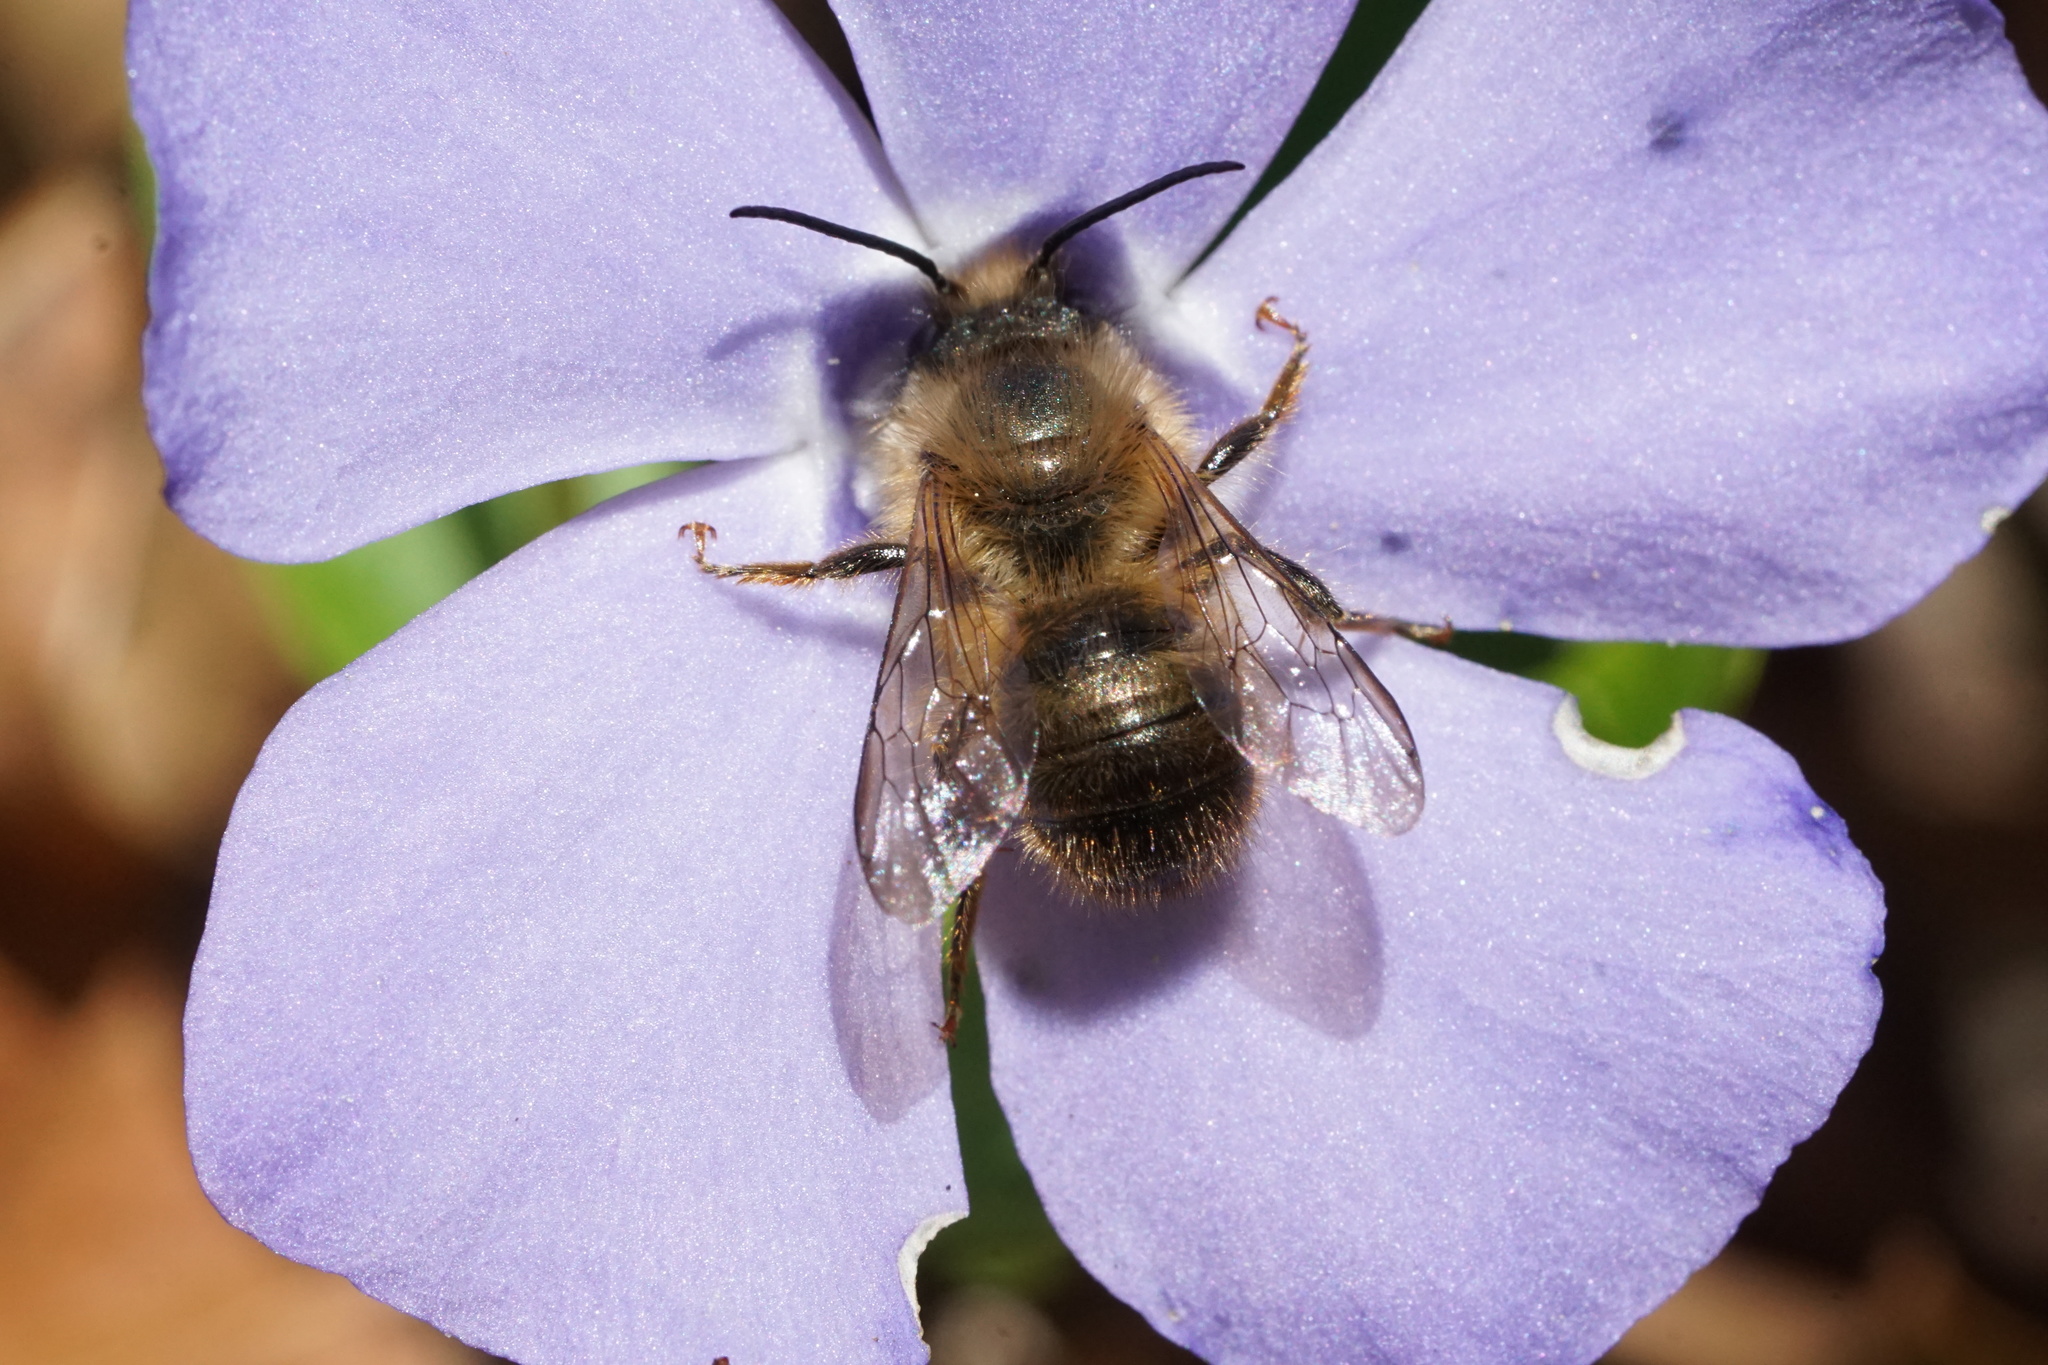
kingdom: Animalia
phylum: Arthropoda
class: Insecta
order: Hymenoptera
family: Megachilidae
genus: Osmia
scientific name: Osmia taurus
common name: Taurus mason bee
